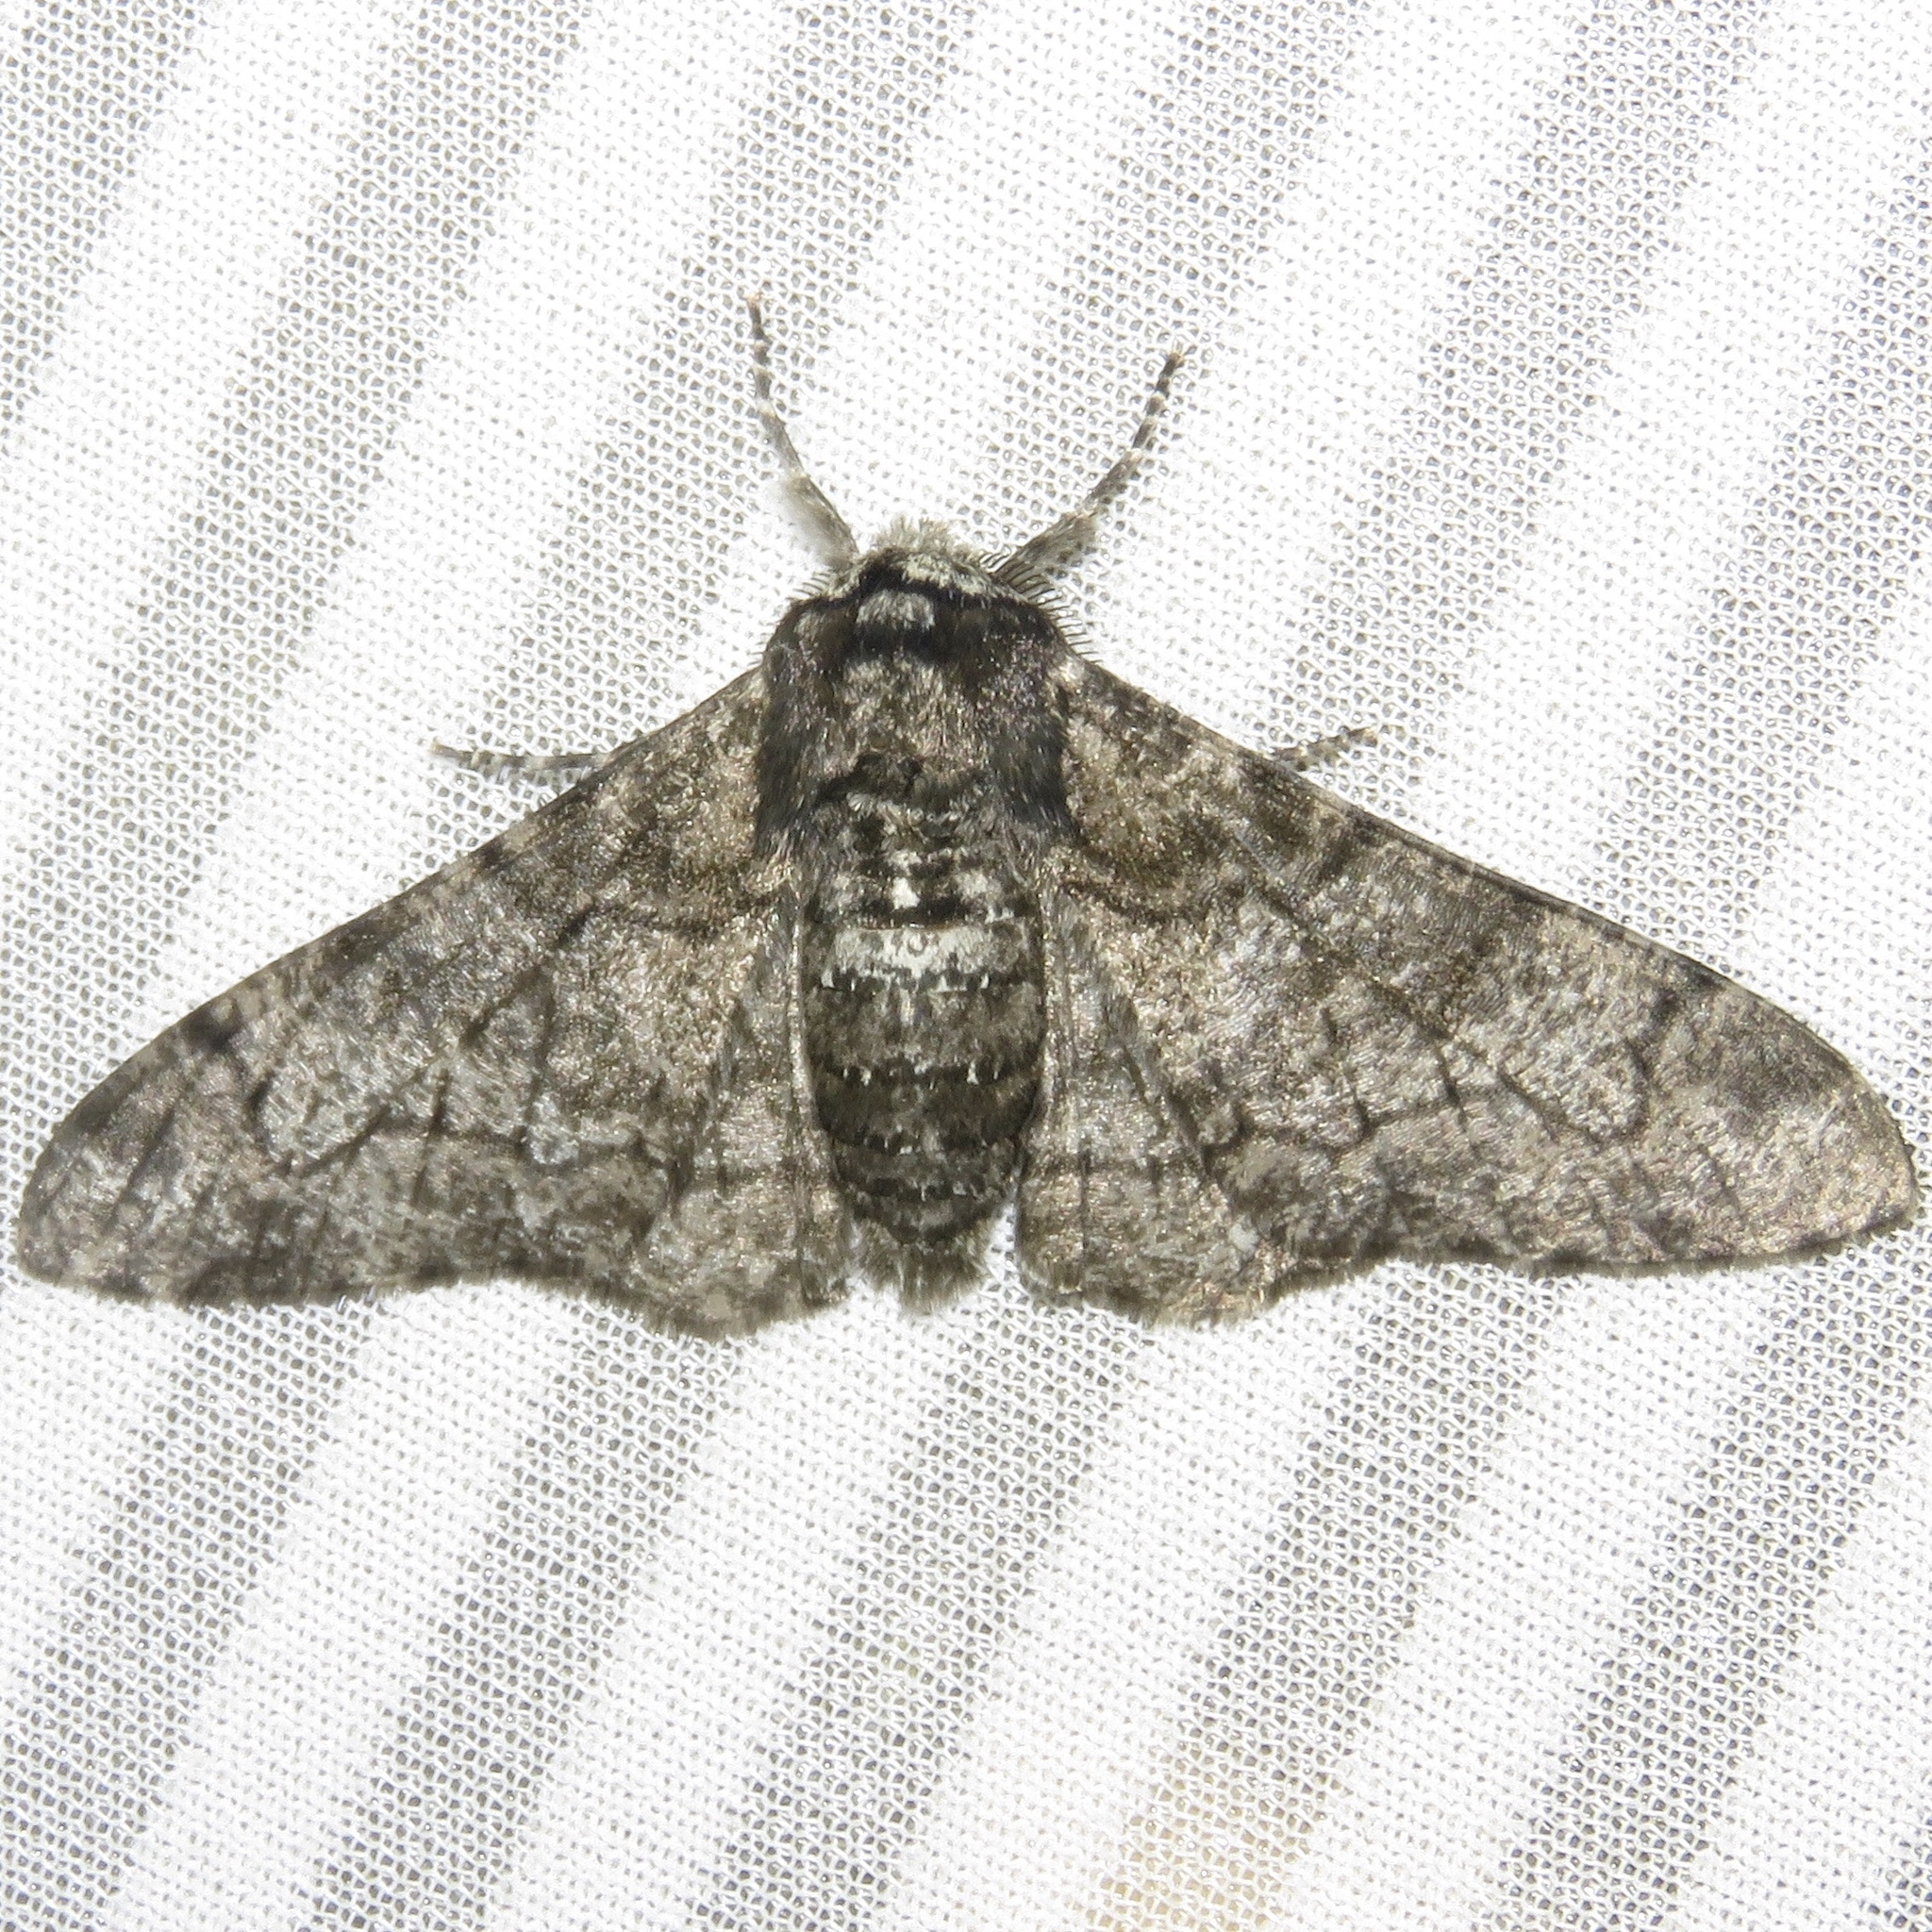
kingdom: Animalia
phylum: Arthropoda
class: Insecta
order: Lepidoptera
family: Geometridae
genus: Biston
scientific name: Biston betularia
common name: Peppered moth
